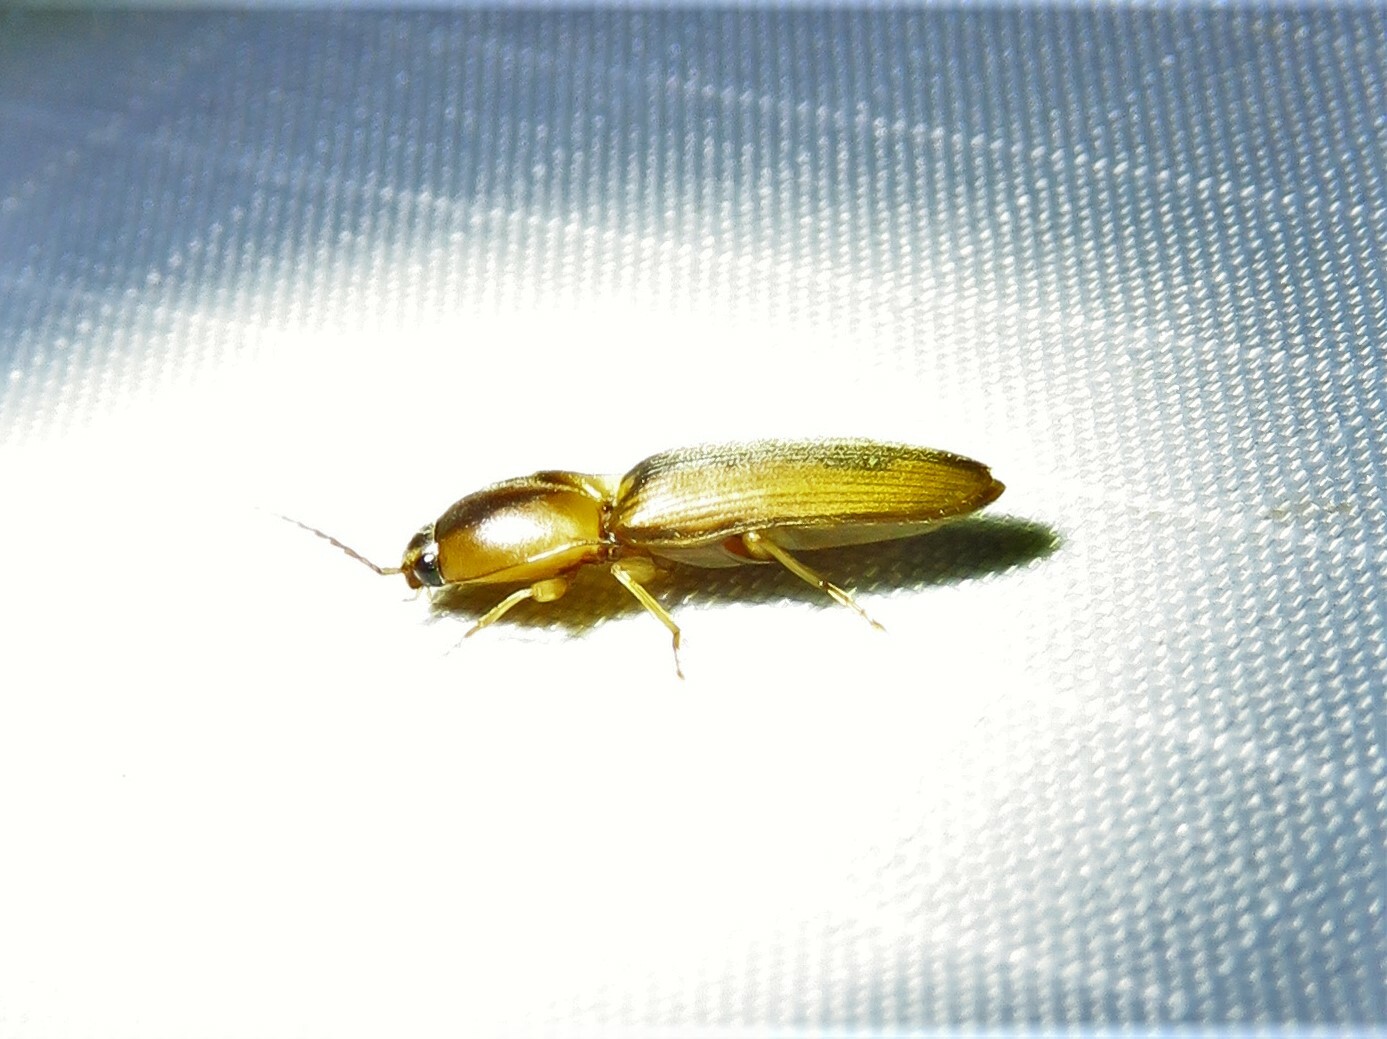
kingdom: Animalia
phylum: Arthropoda
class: Insecta
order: Coleoptera
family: Elateridae
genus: Monocrepidius
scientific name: Monocrepidius aversus
